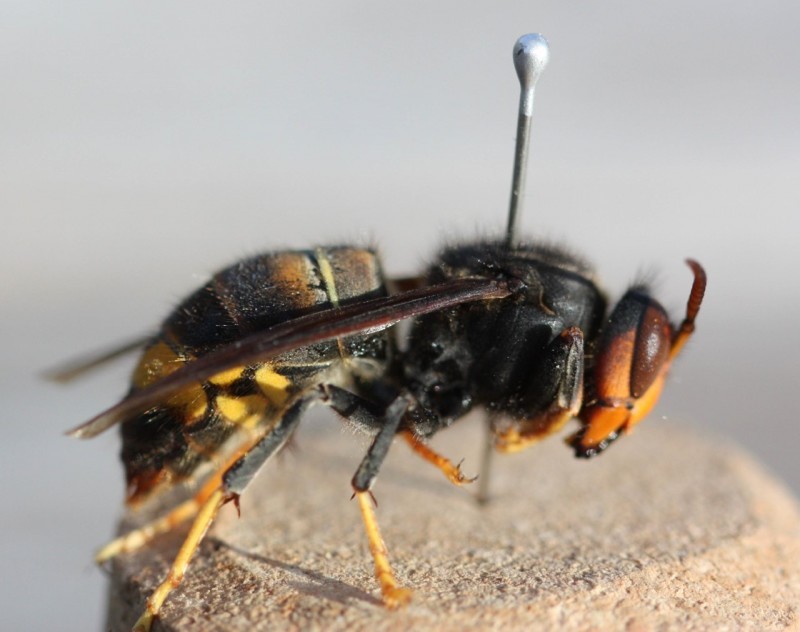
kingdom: Animalia
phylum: Arthropoda
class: Insecta
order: Hymenoptera
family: Vespidae
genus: Vespa
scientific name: Vespa velutina
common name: Asian hornet
